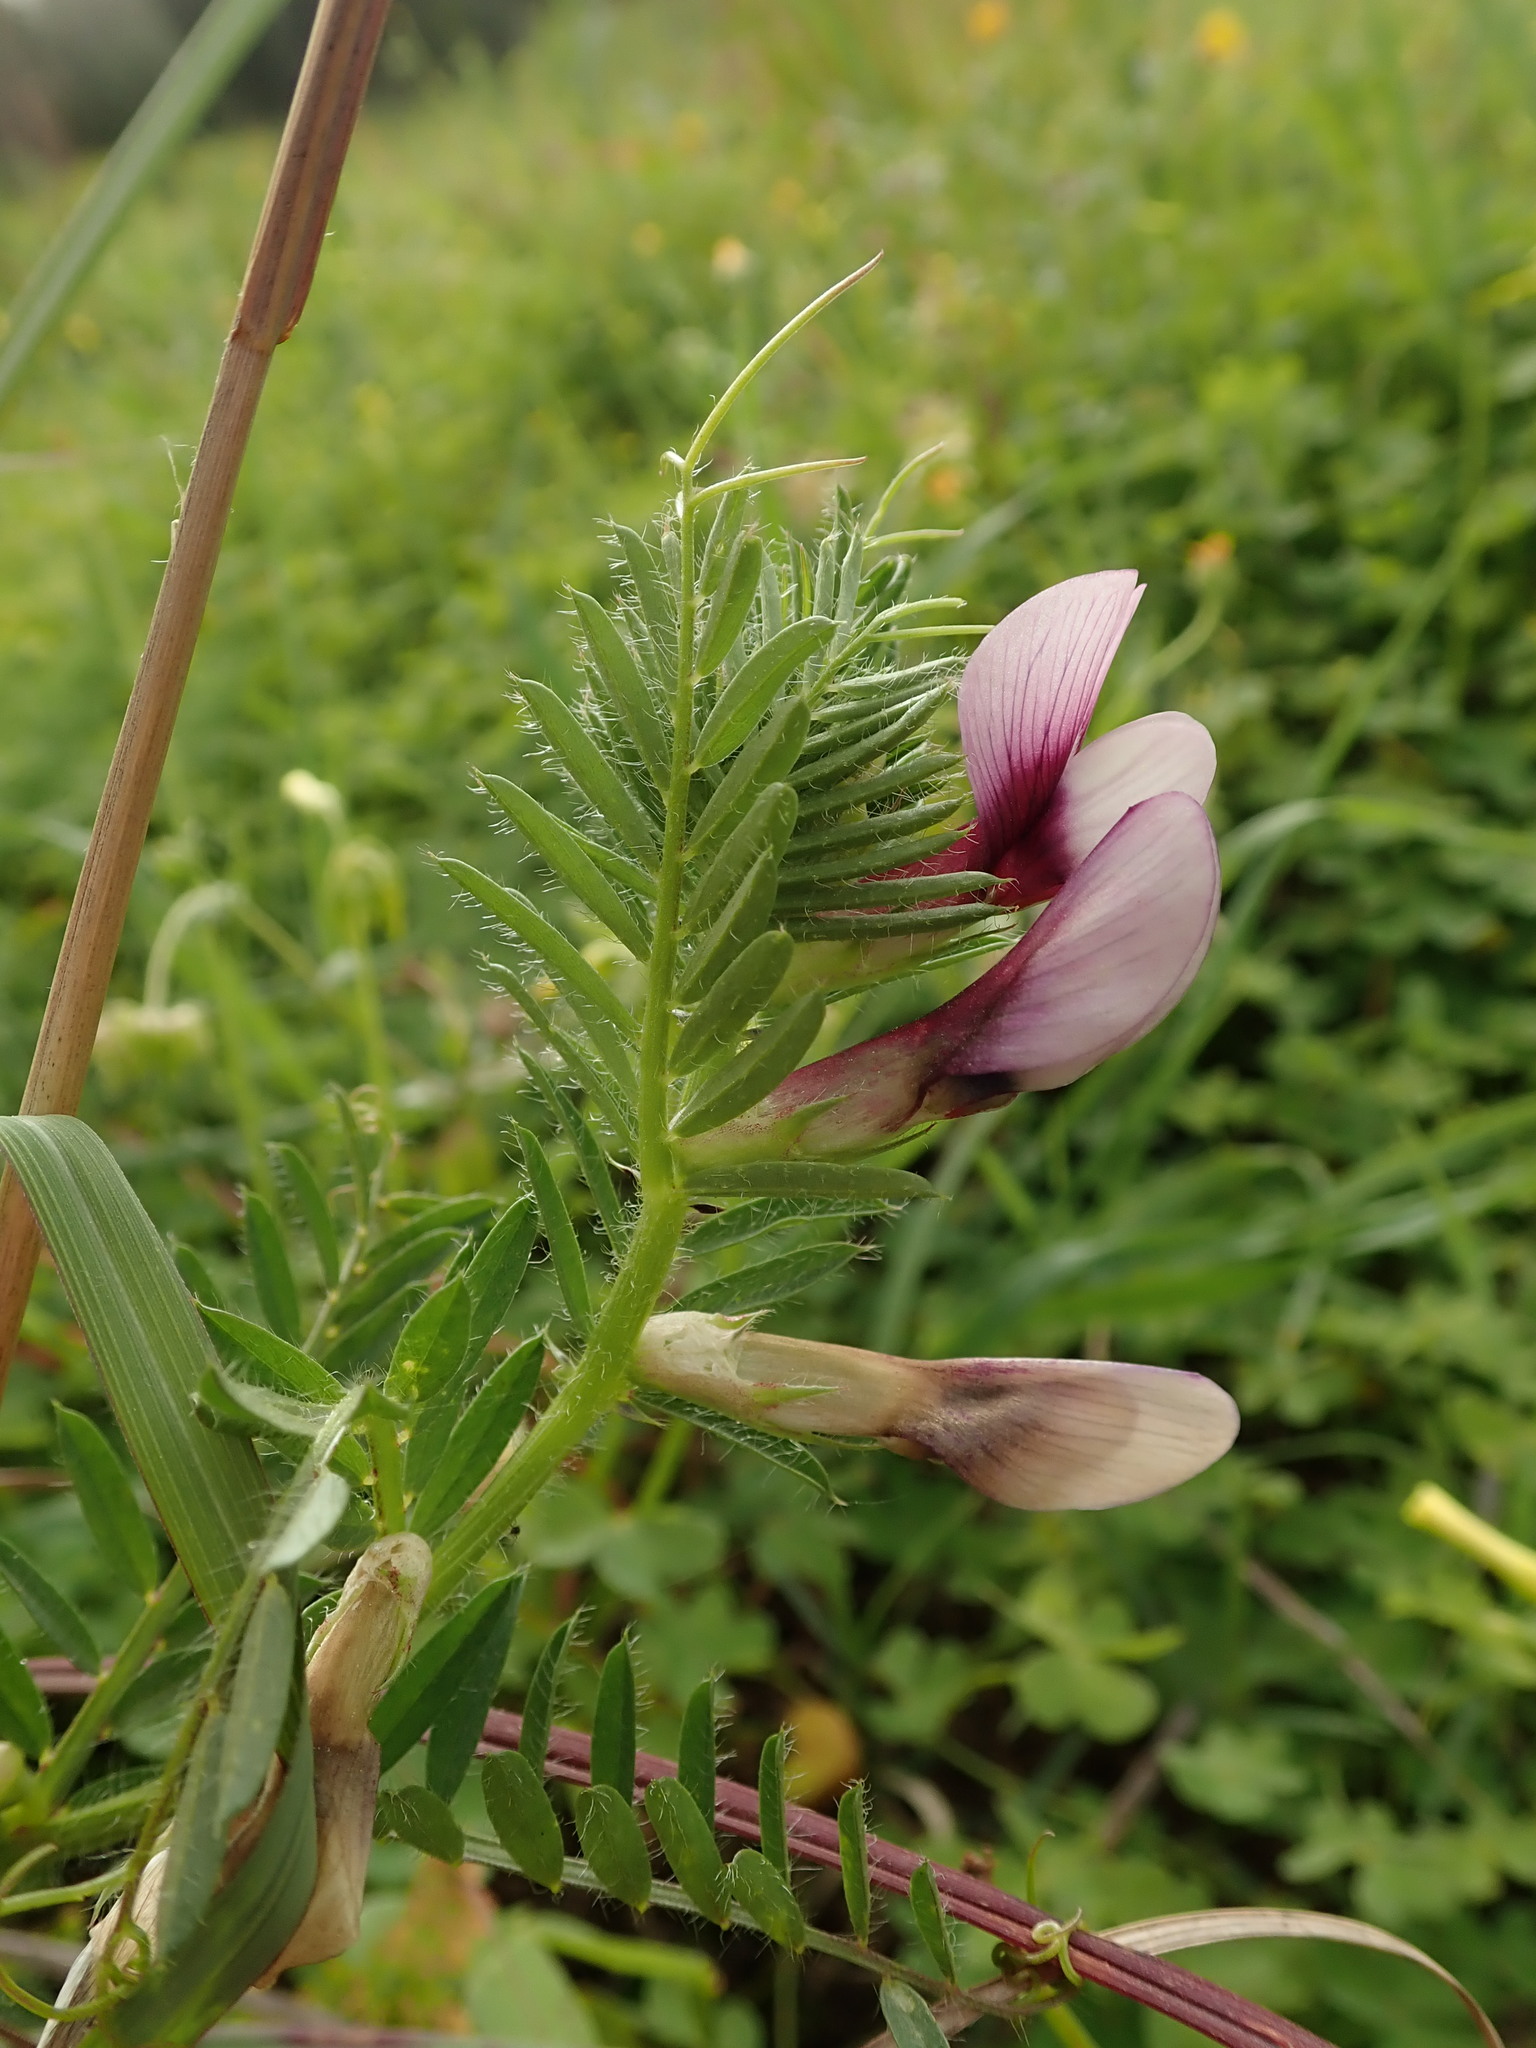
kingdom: Plantae
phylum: Tracheophyta
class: Magnoliopsida
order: Fabales
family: Fabaceae
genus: Vicia
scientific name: Vicia lutea
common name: Smooth yellow vetch
